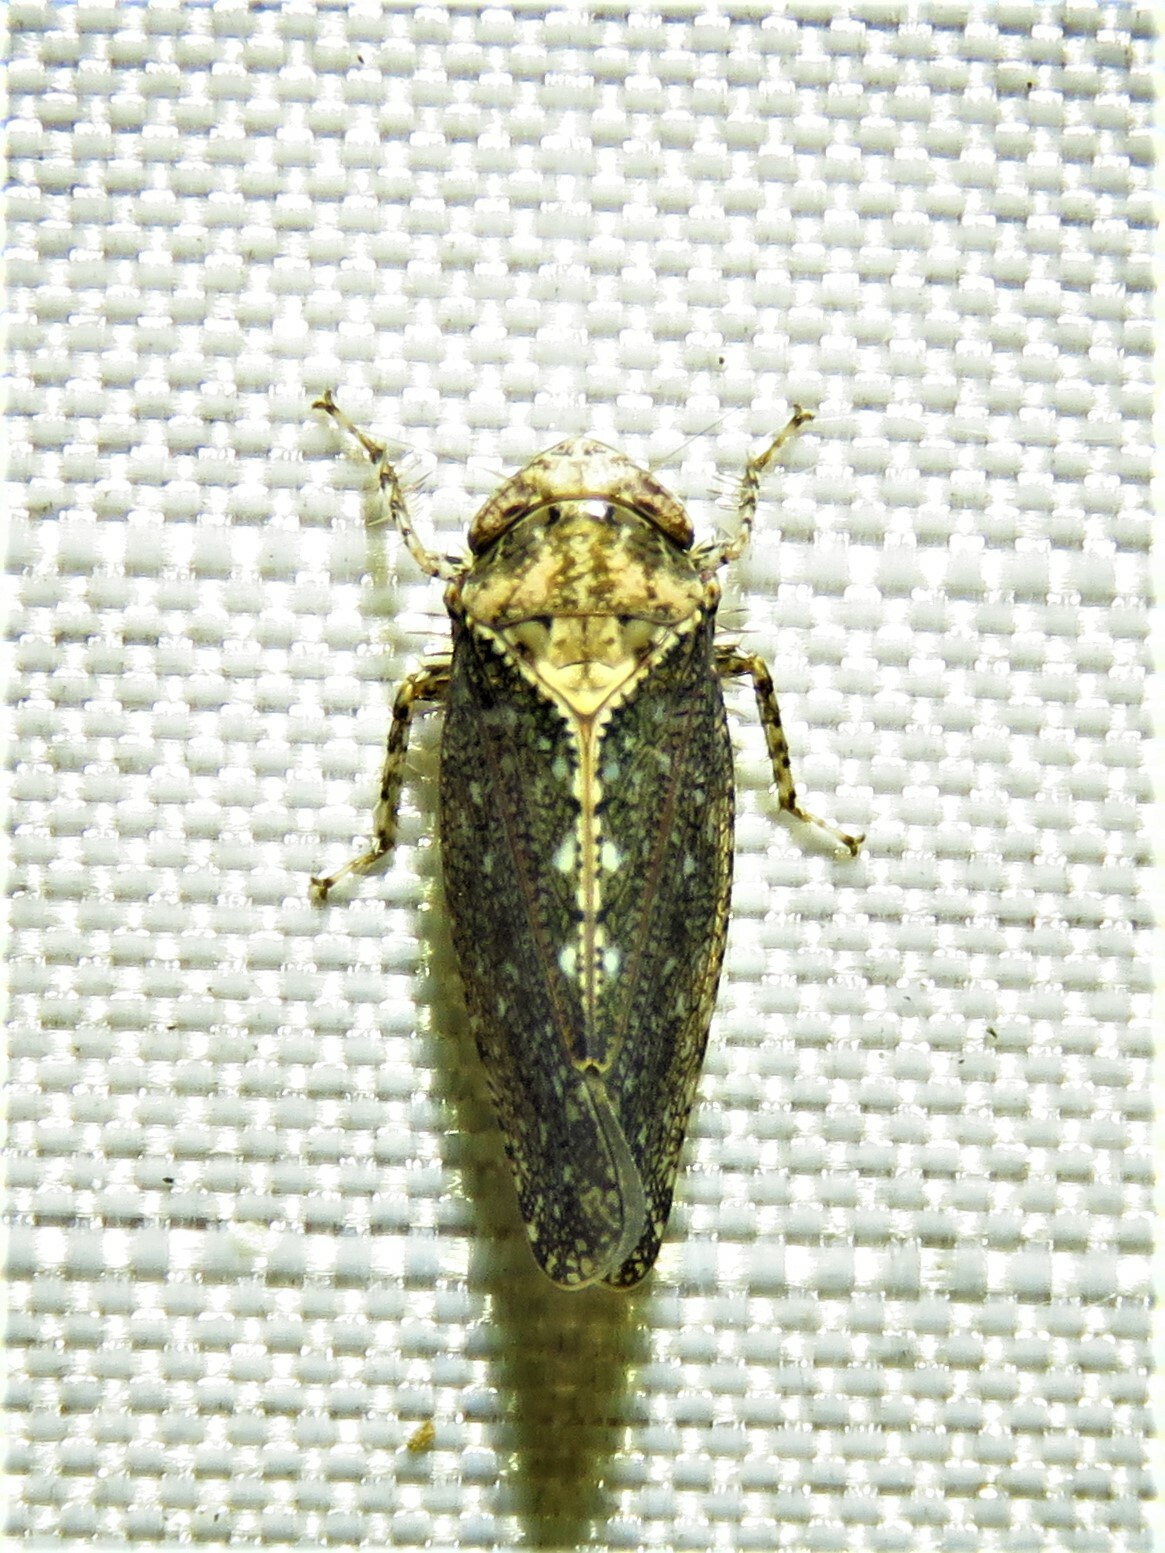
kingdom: Animalia
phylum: Arthropoda
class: Insecta
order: Hemiptera
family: Cicadellidae
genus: Excultanus
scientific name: Excultanus excultus
